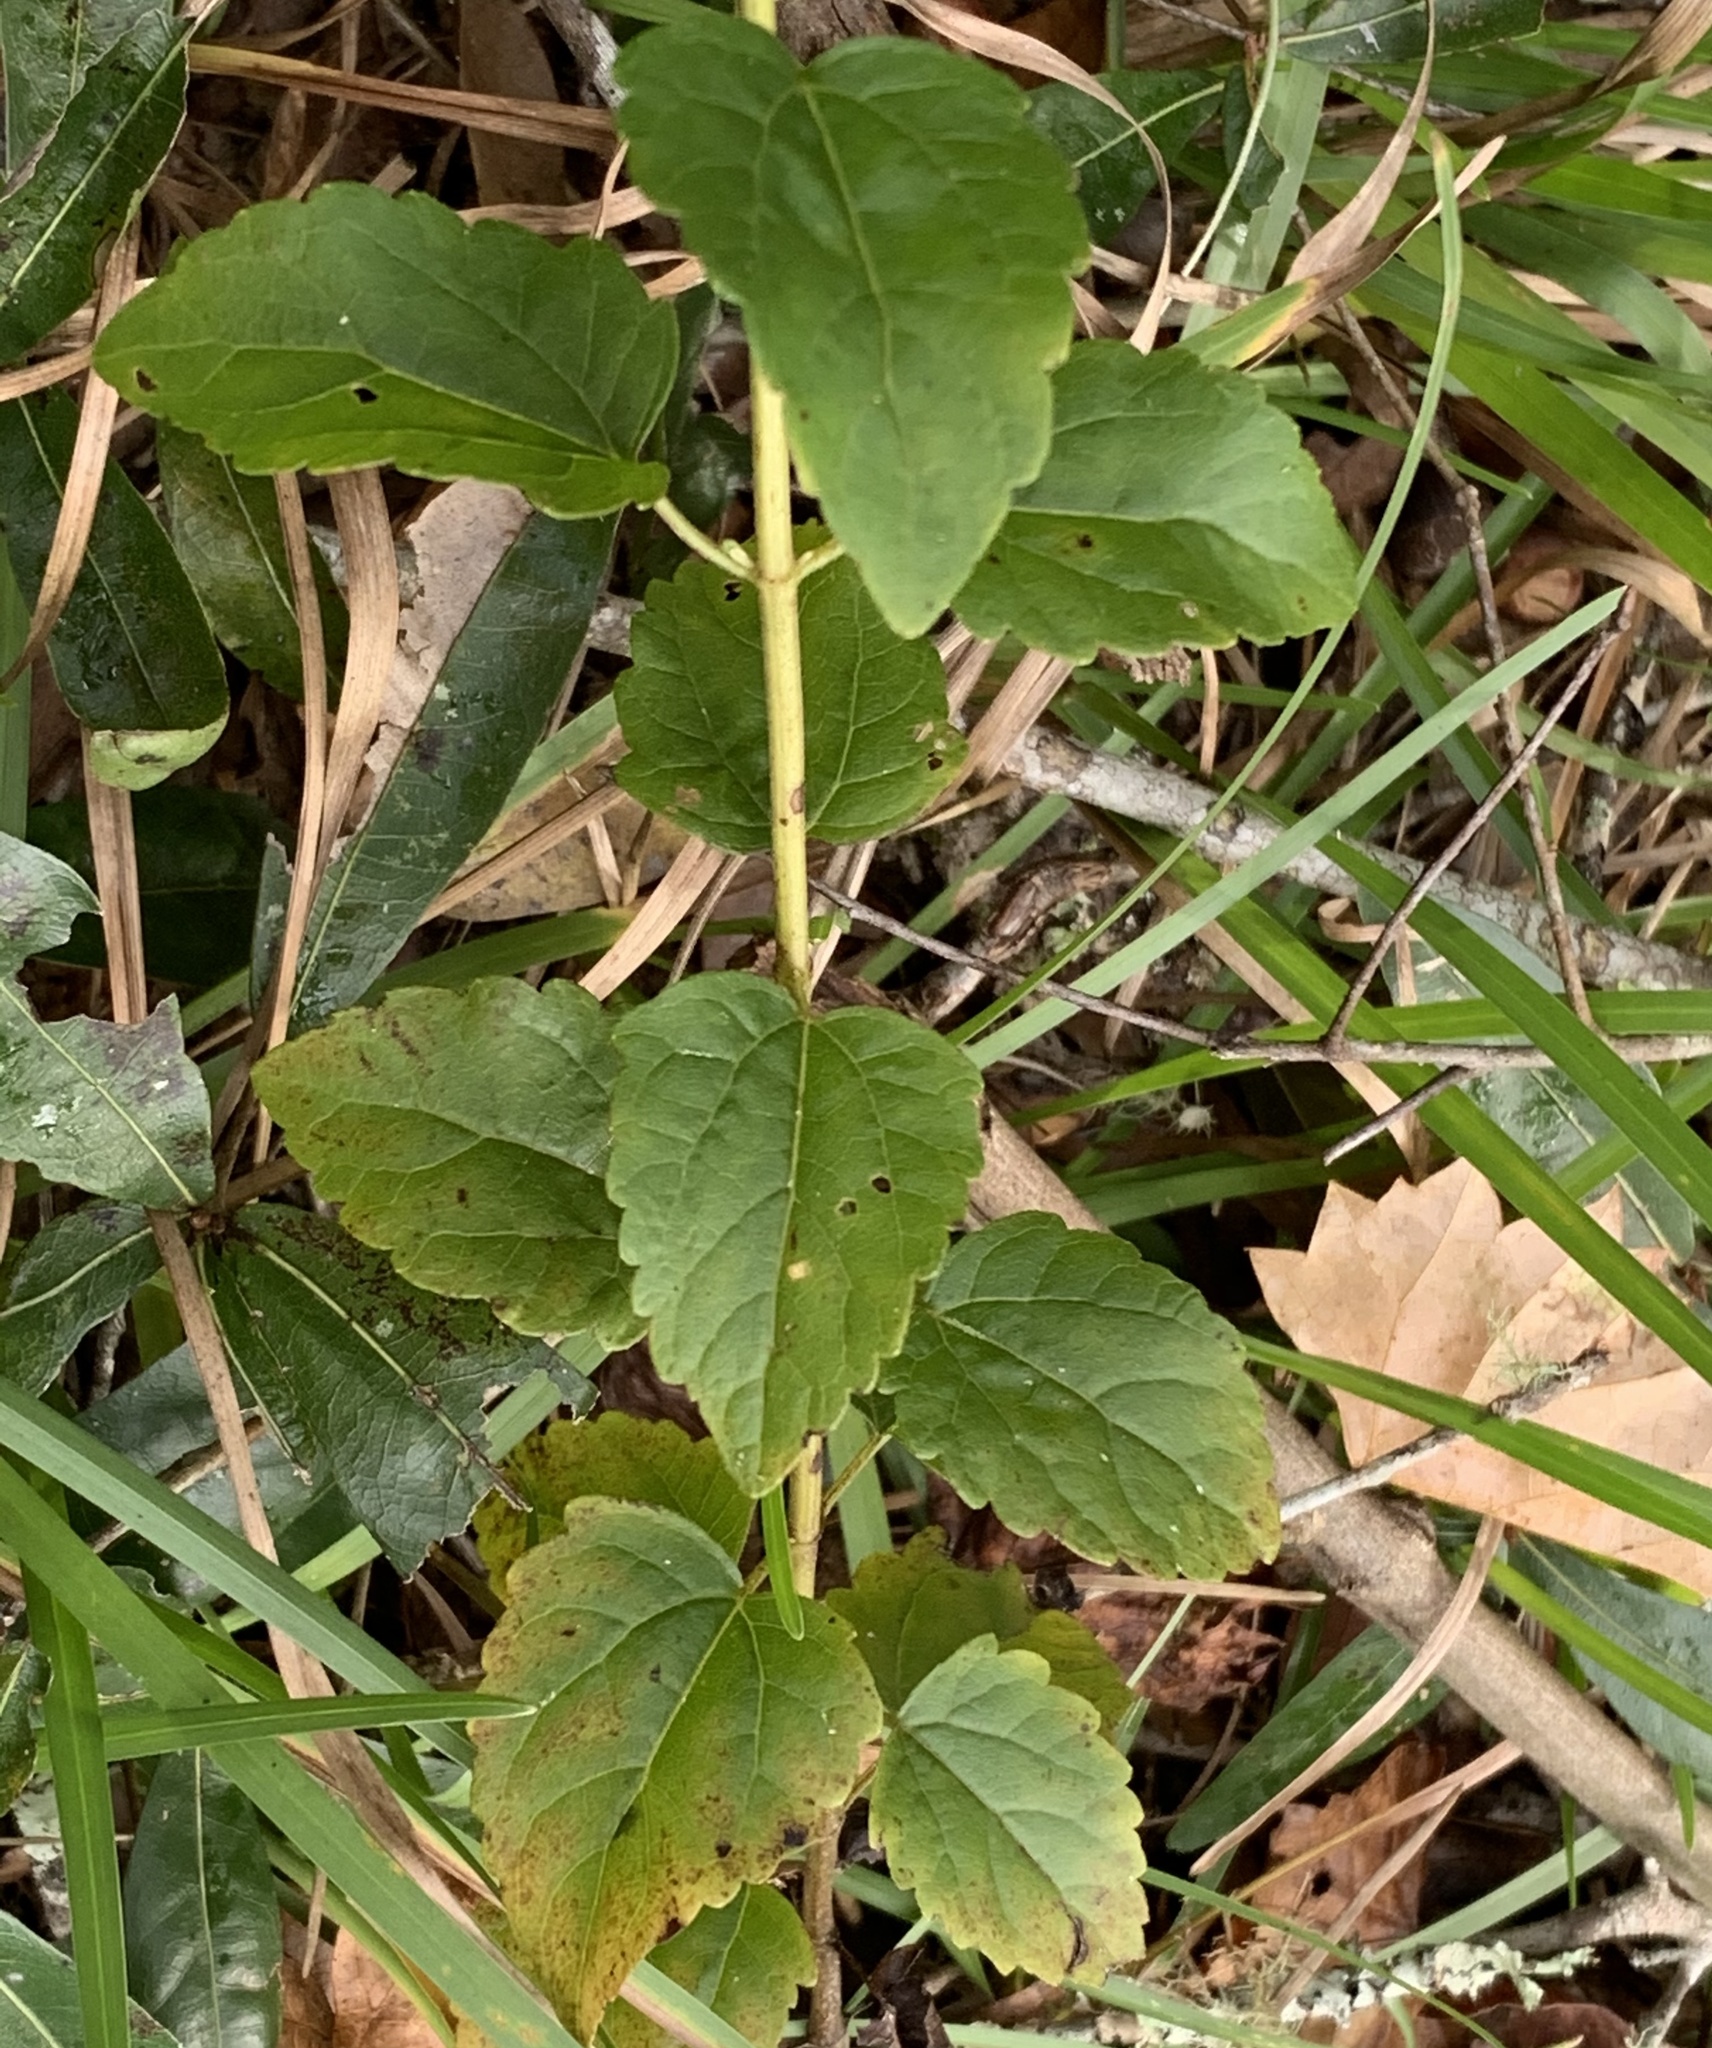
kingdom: Plantae
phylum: Tracheophyta
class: Magnoliopsida
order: Asterales
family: Asteraceae
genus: Ageratina
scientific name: Ageratina jucunda
